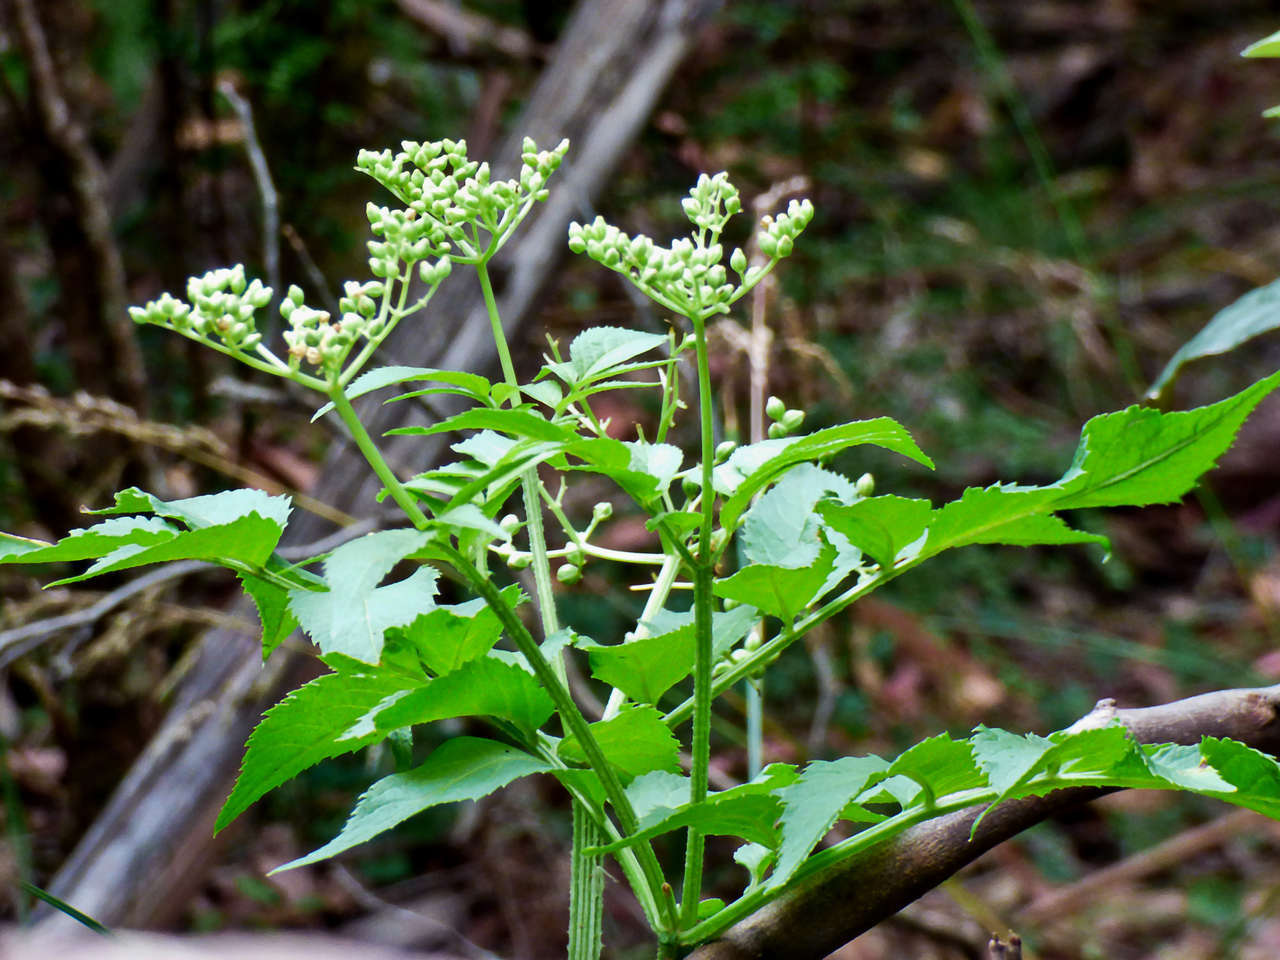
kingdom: Plantae
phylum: Tracheophyta
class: Magnoliopsida
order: Dipsacales
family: Viburnaceae
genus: Sambucus
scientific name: Sambucus gaudichaudiana
